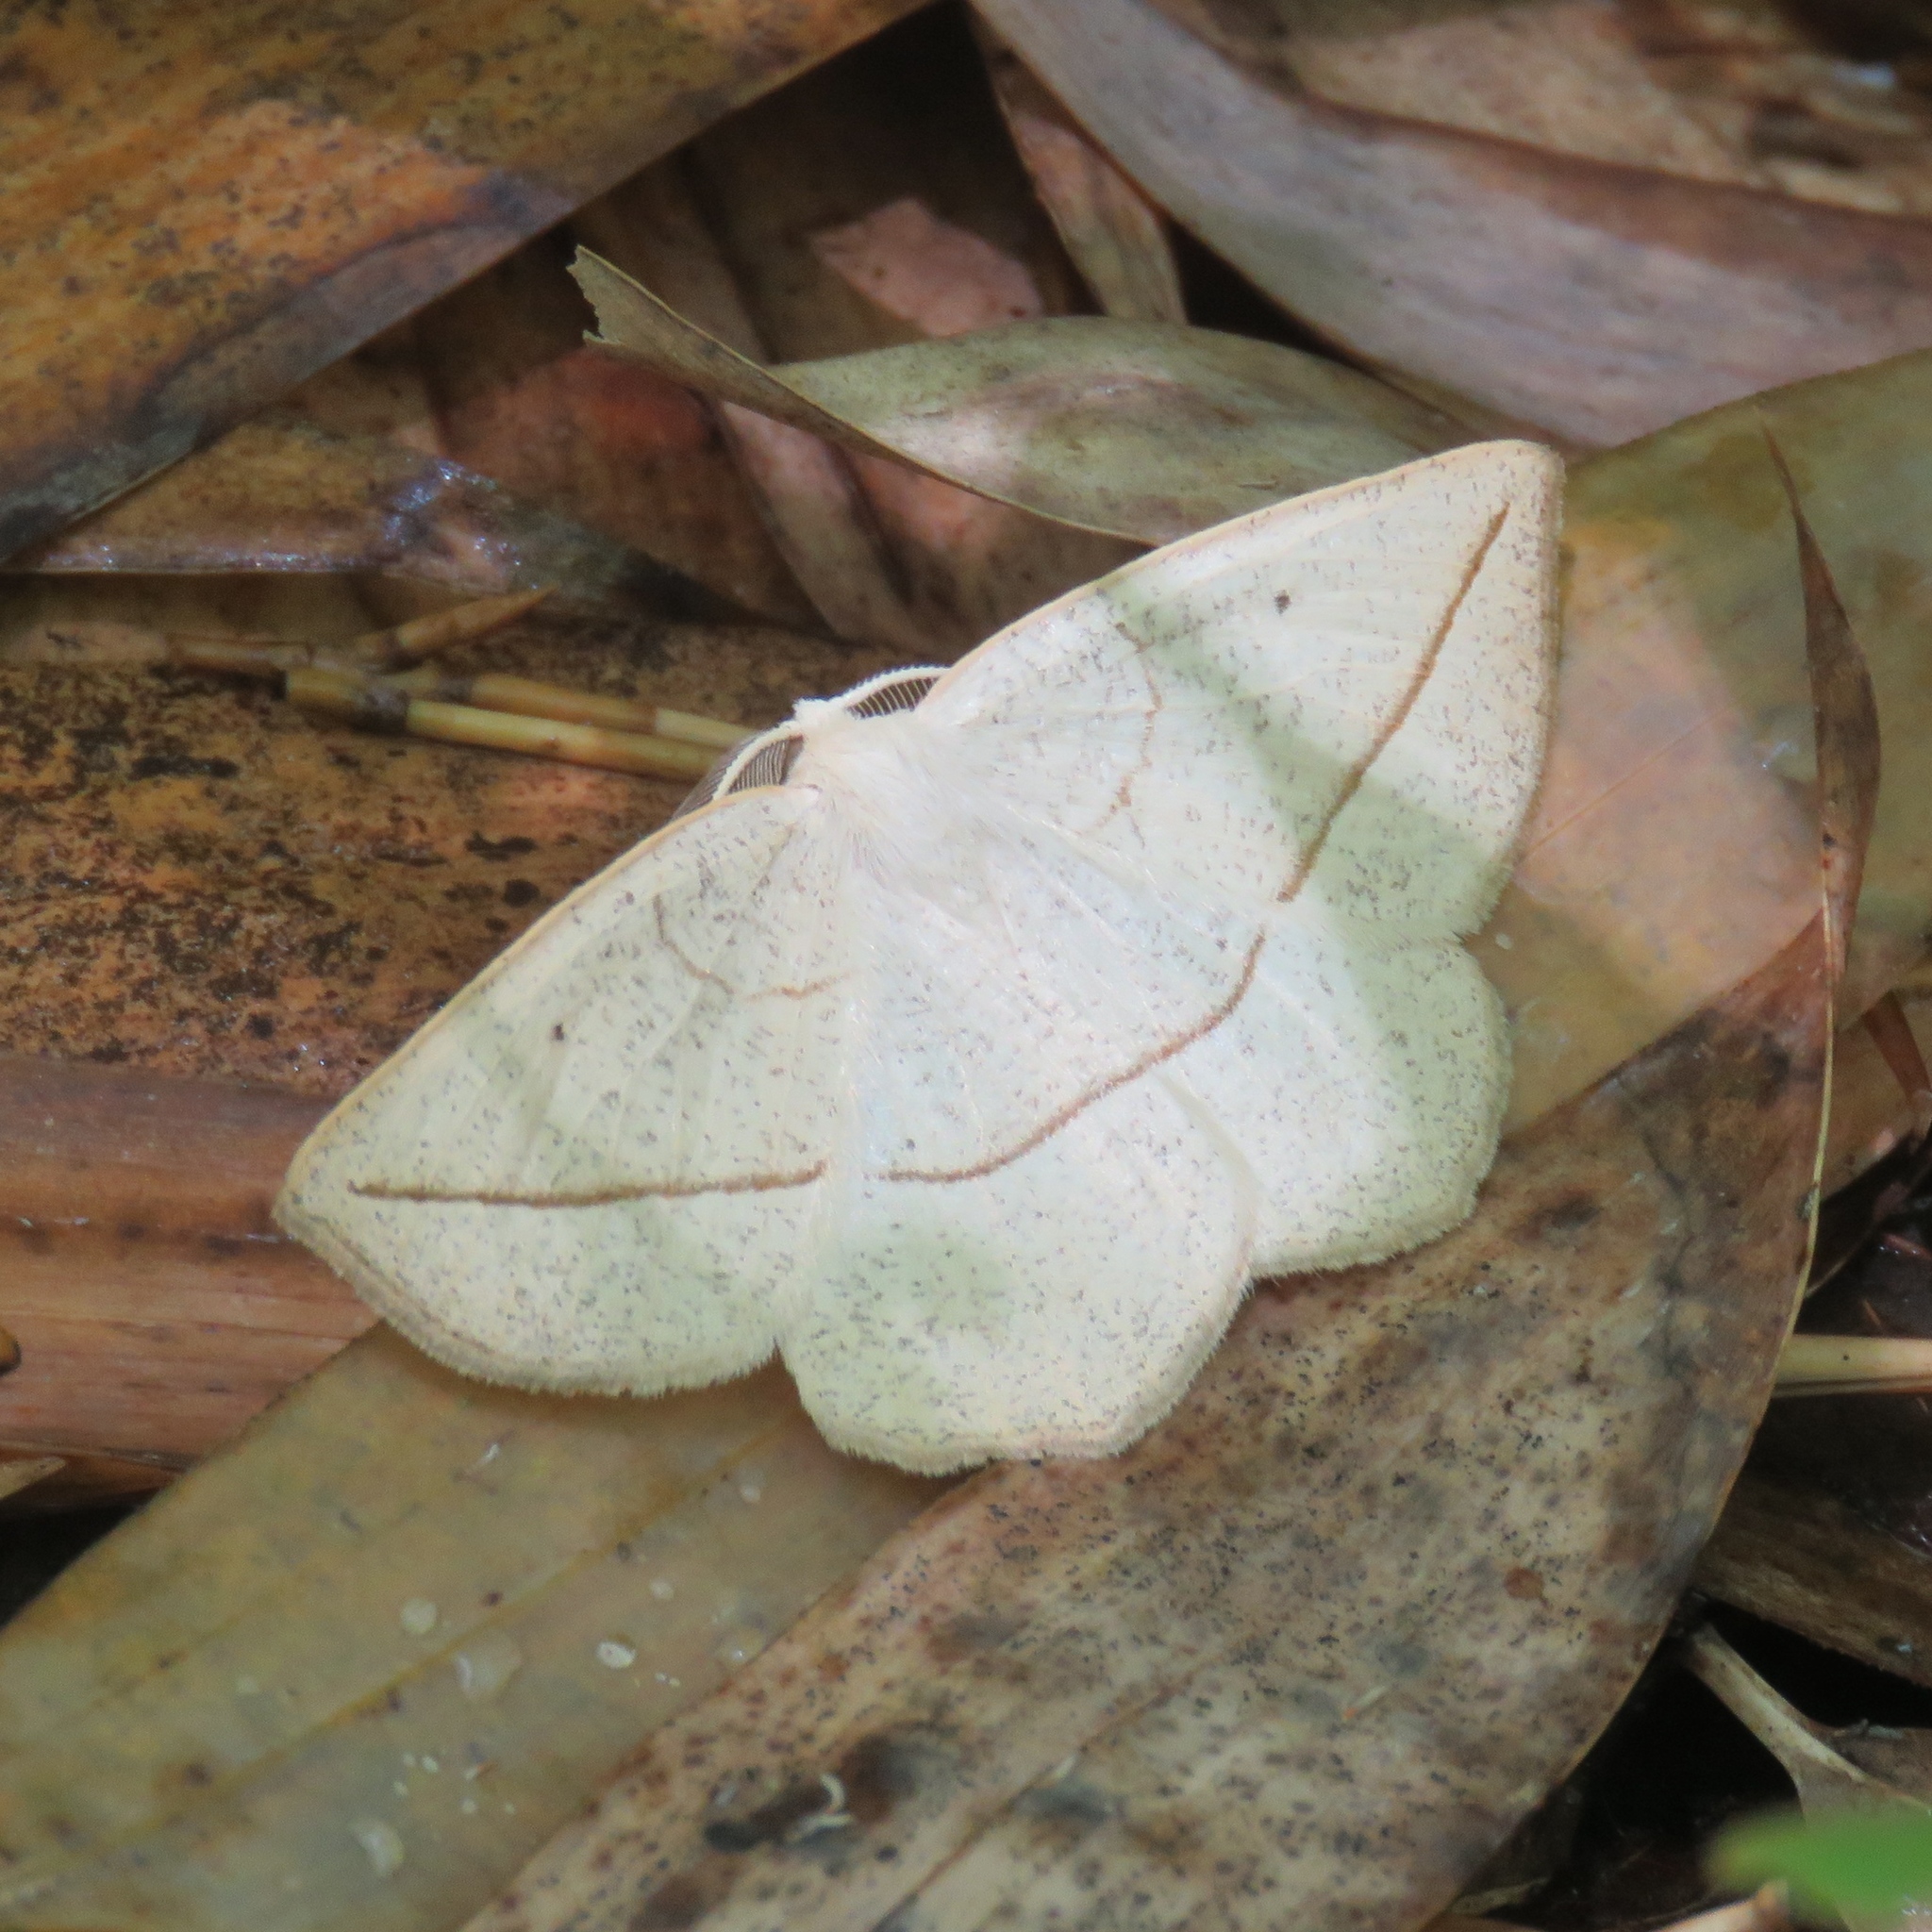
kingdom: Animalia
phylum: Arthropoda
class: Insecta
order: Lepidoptera
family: Geometridae
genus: Eusarca
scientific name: Eusarca confusaria
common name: Confused eusarca
